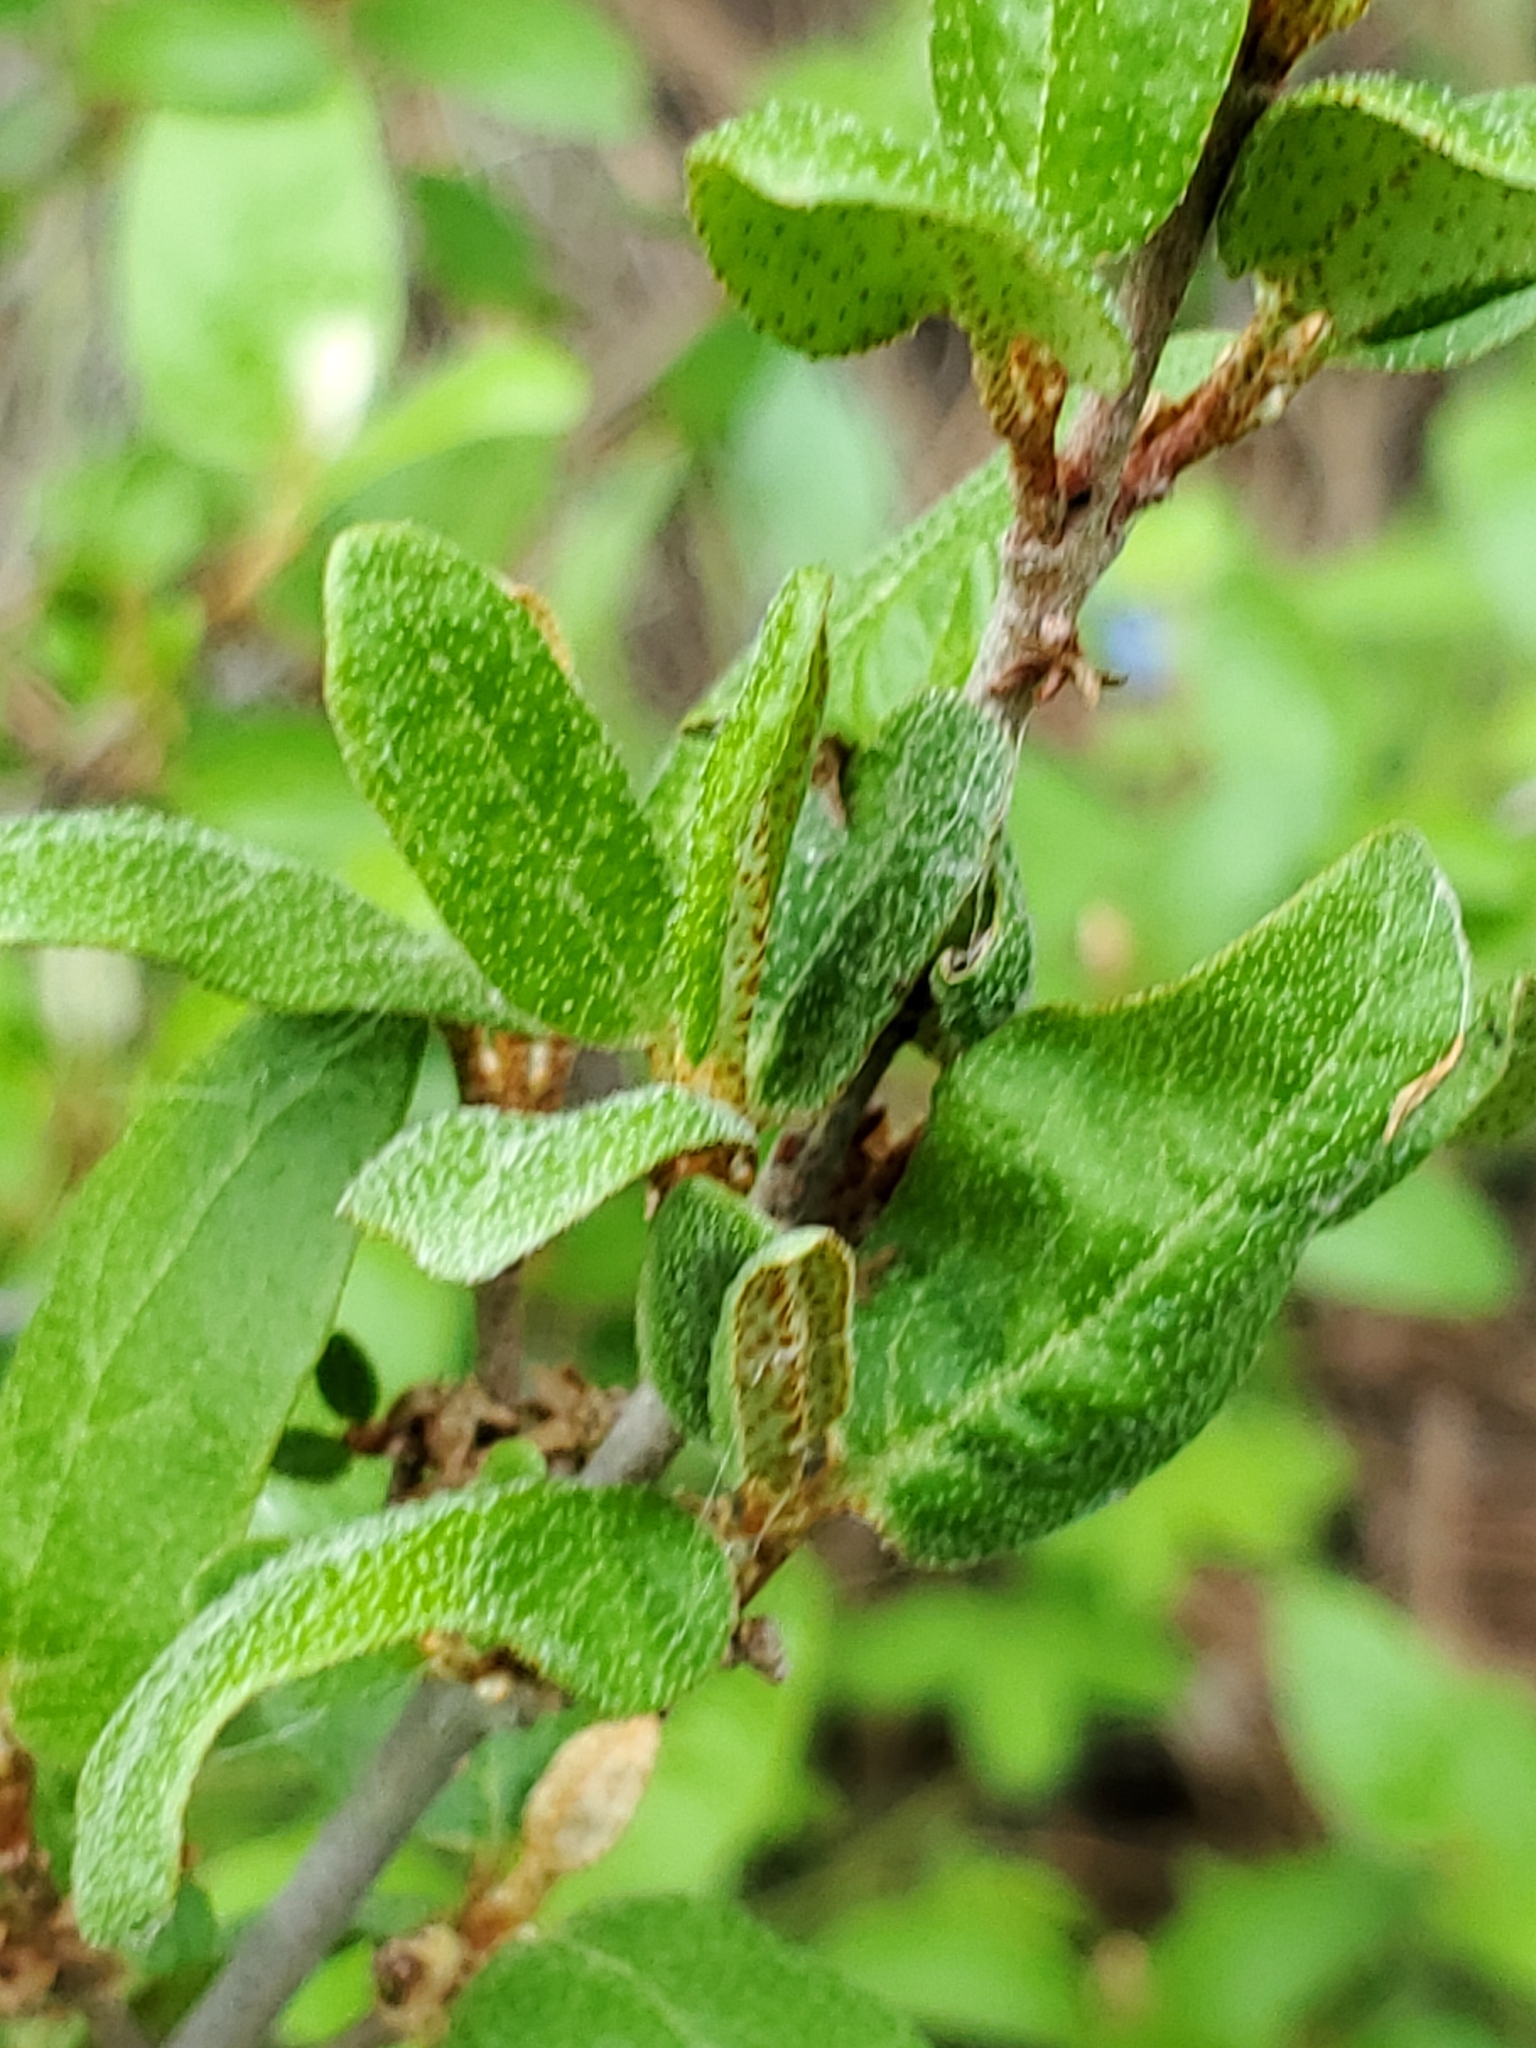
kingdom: Plantae
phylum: Tracheophyta
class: Magnoliopsida
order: Rosales
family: Elaeagnaceae
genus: Shepherdia
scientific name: Shepherdia canadensis
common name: Soapberry
